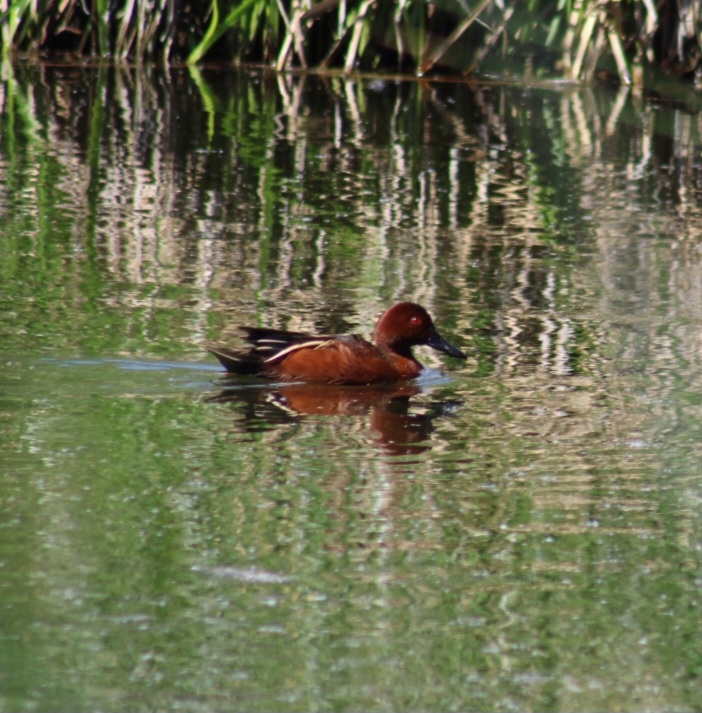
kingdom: Animalia
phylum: Chordata
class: Aves
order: Anseriformes
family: Anatidae
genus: Spatula
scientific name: Spatula cyanoptera
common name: Cinnamon teal
